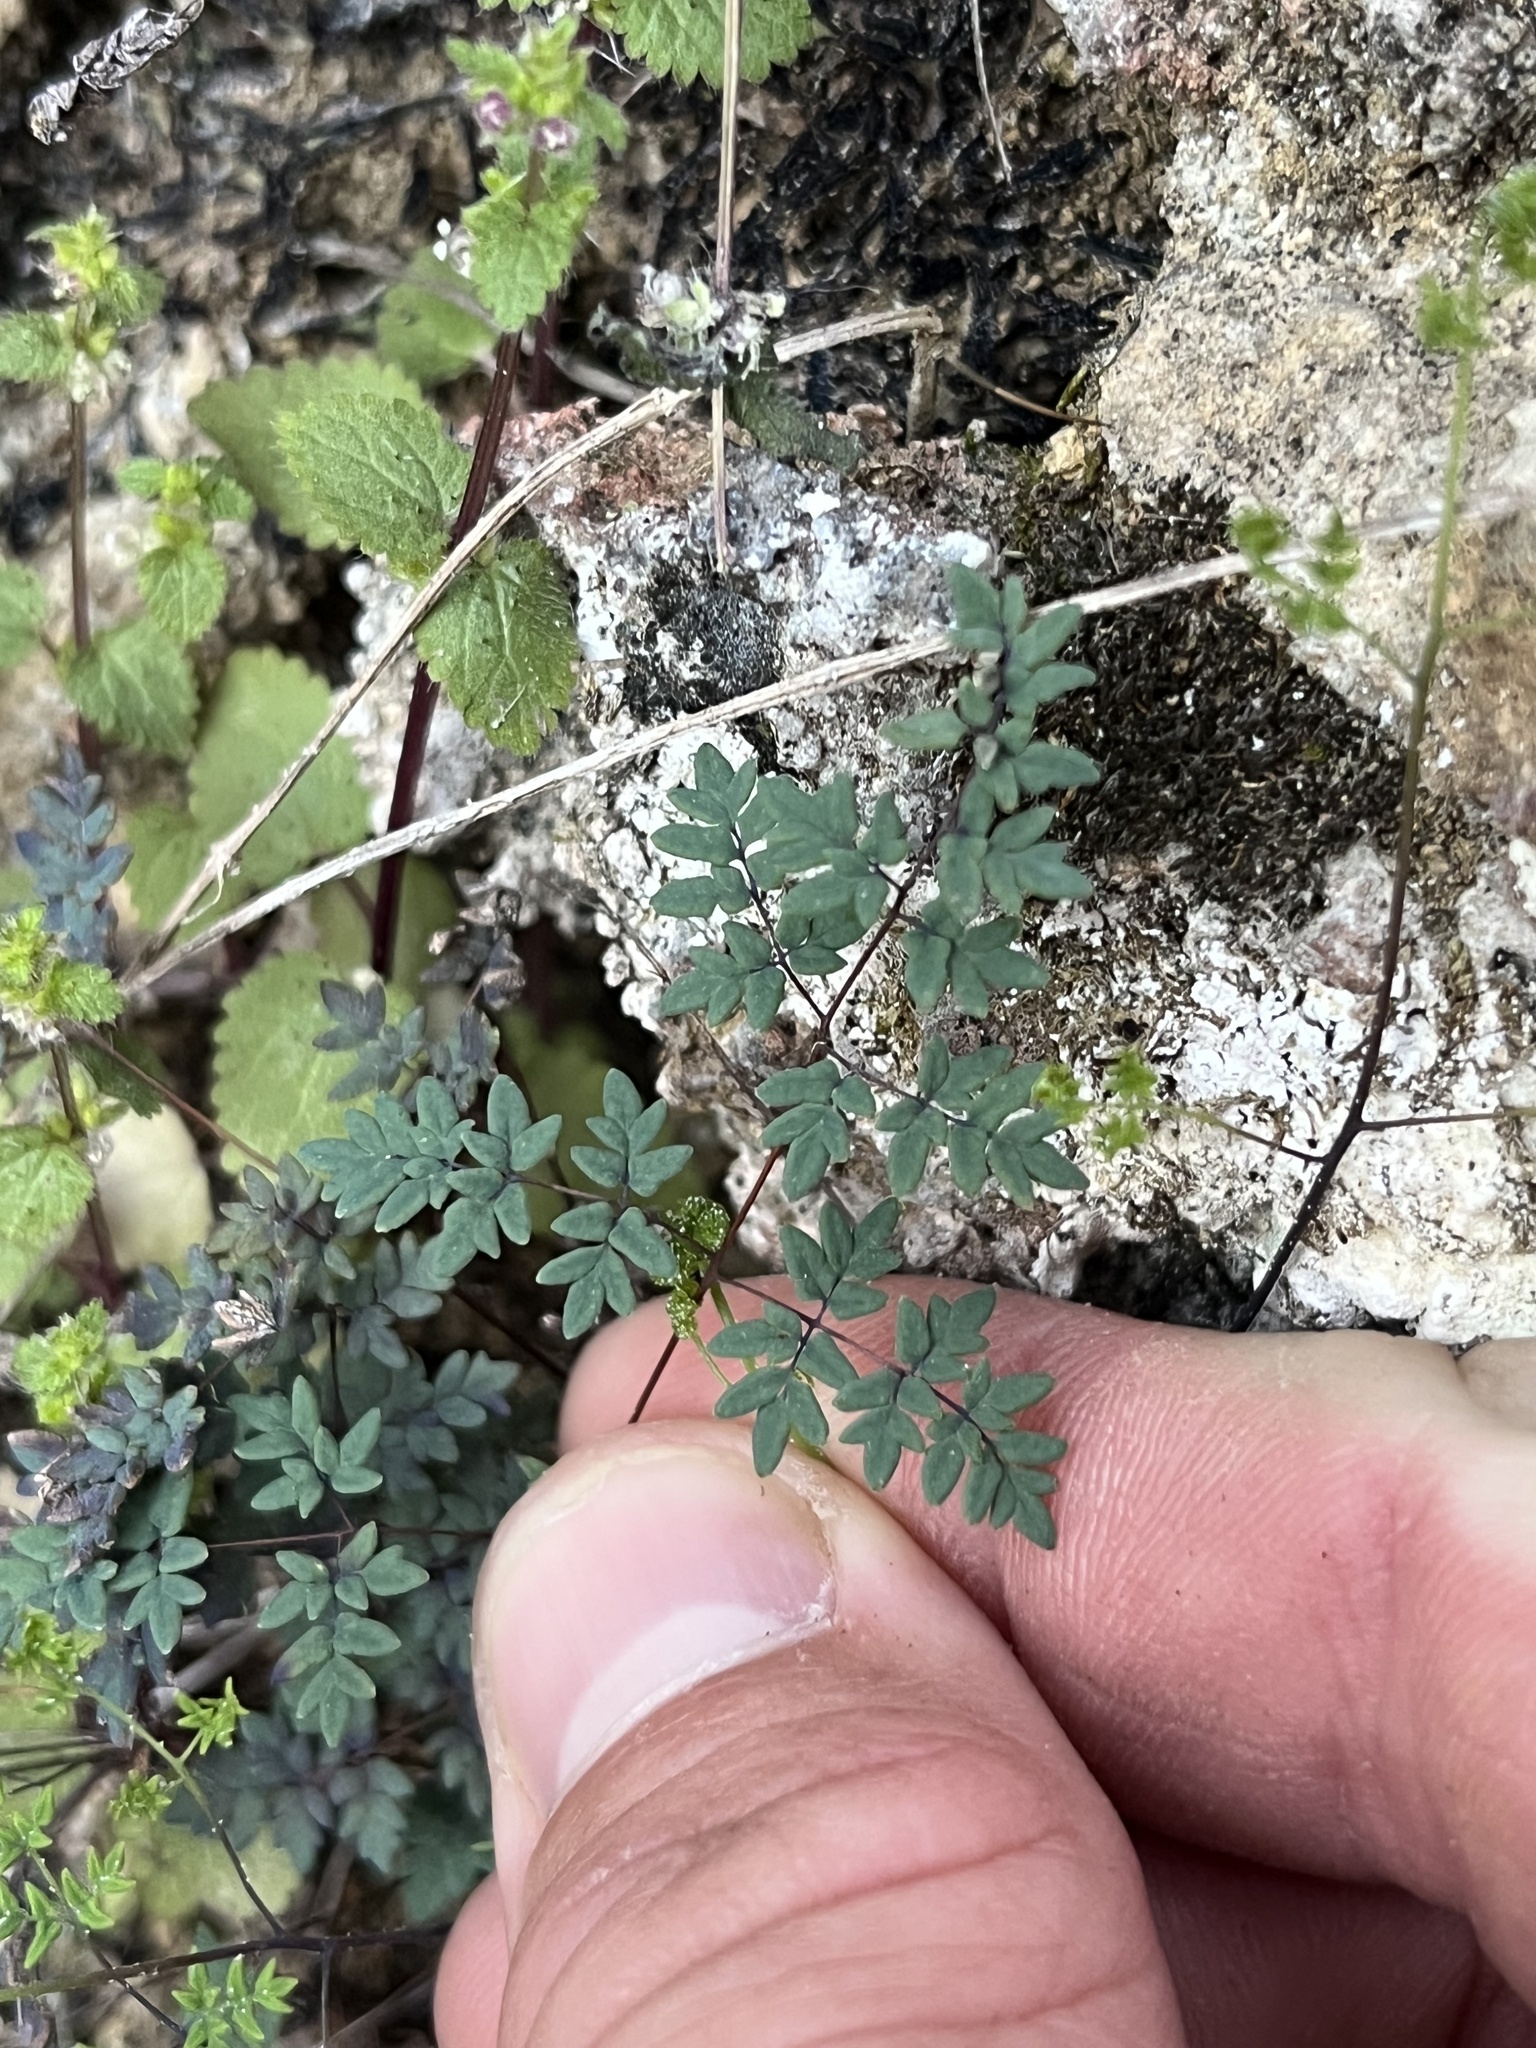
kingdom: Plantae
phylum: Tracheophyta
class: Polypodiopsida
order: Polypodiales
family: Pteridaceae
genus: Argyrochosma
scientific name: Argyrochosma dealbata
